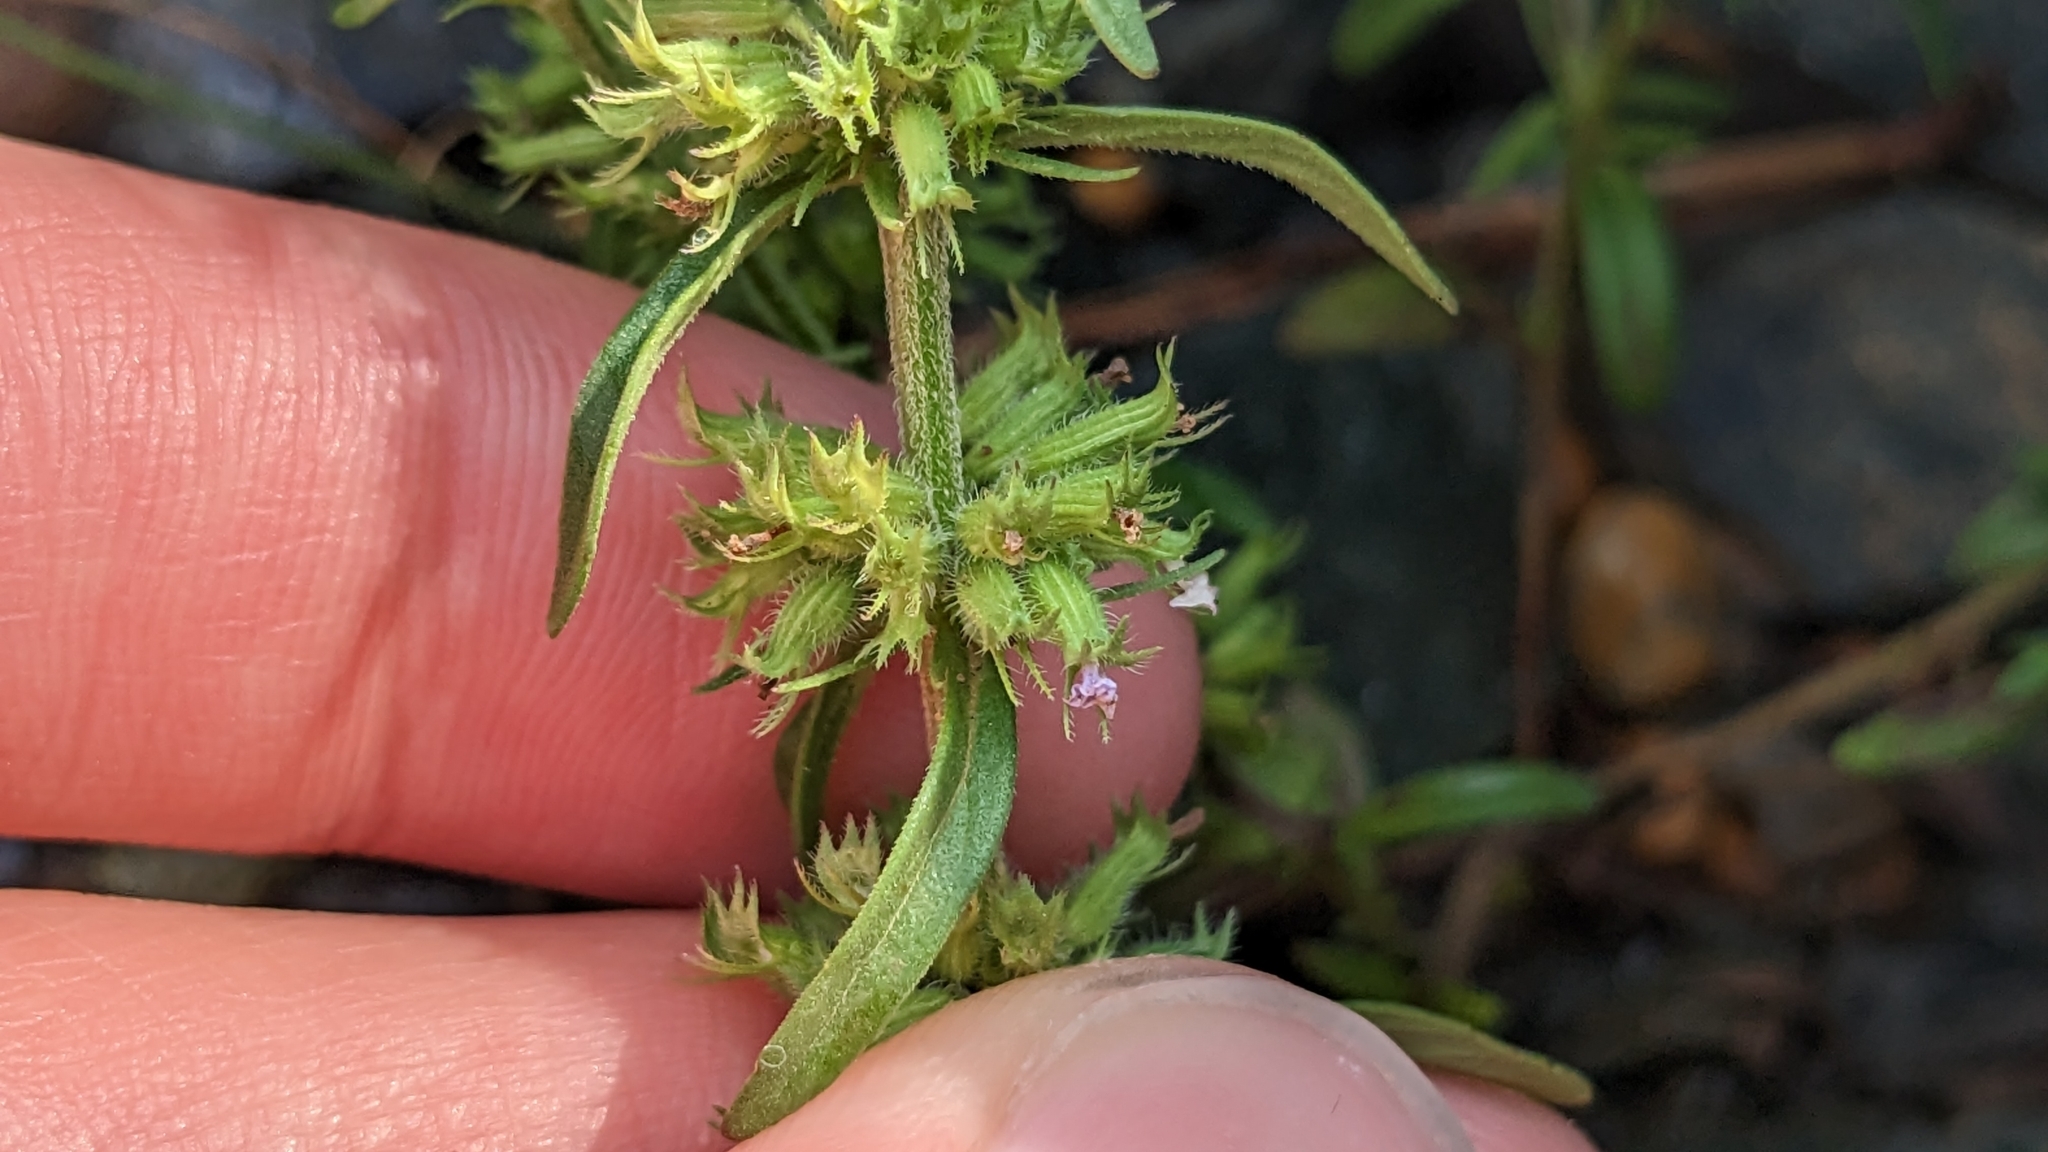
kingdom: Plantae
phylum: Tracheophyta
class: Magnoliopsida
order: Lamiales
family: Lamiaceae
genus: Hedeoma
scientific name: Hedeoma hispida
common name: Mock pennyroyal
